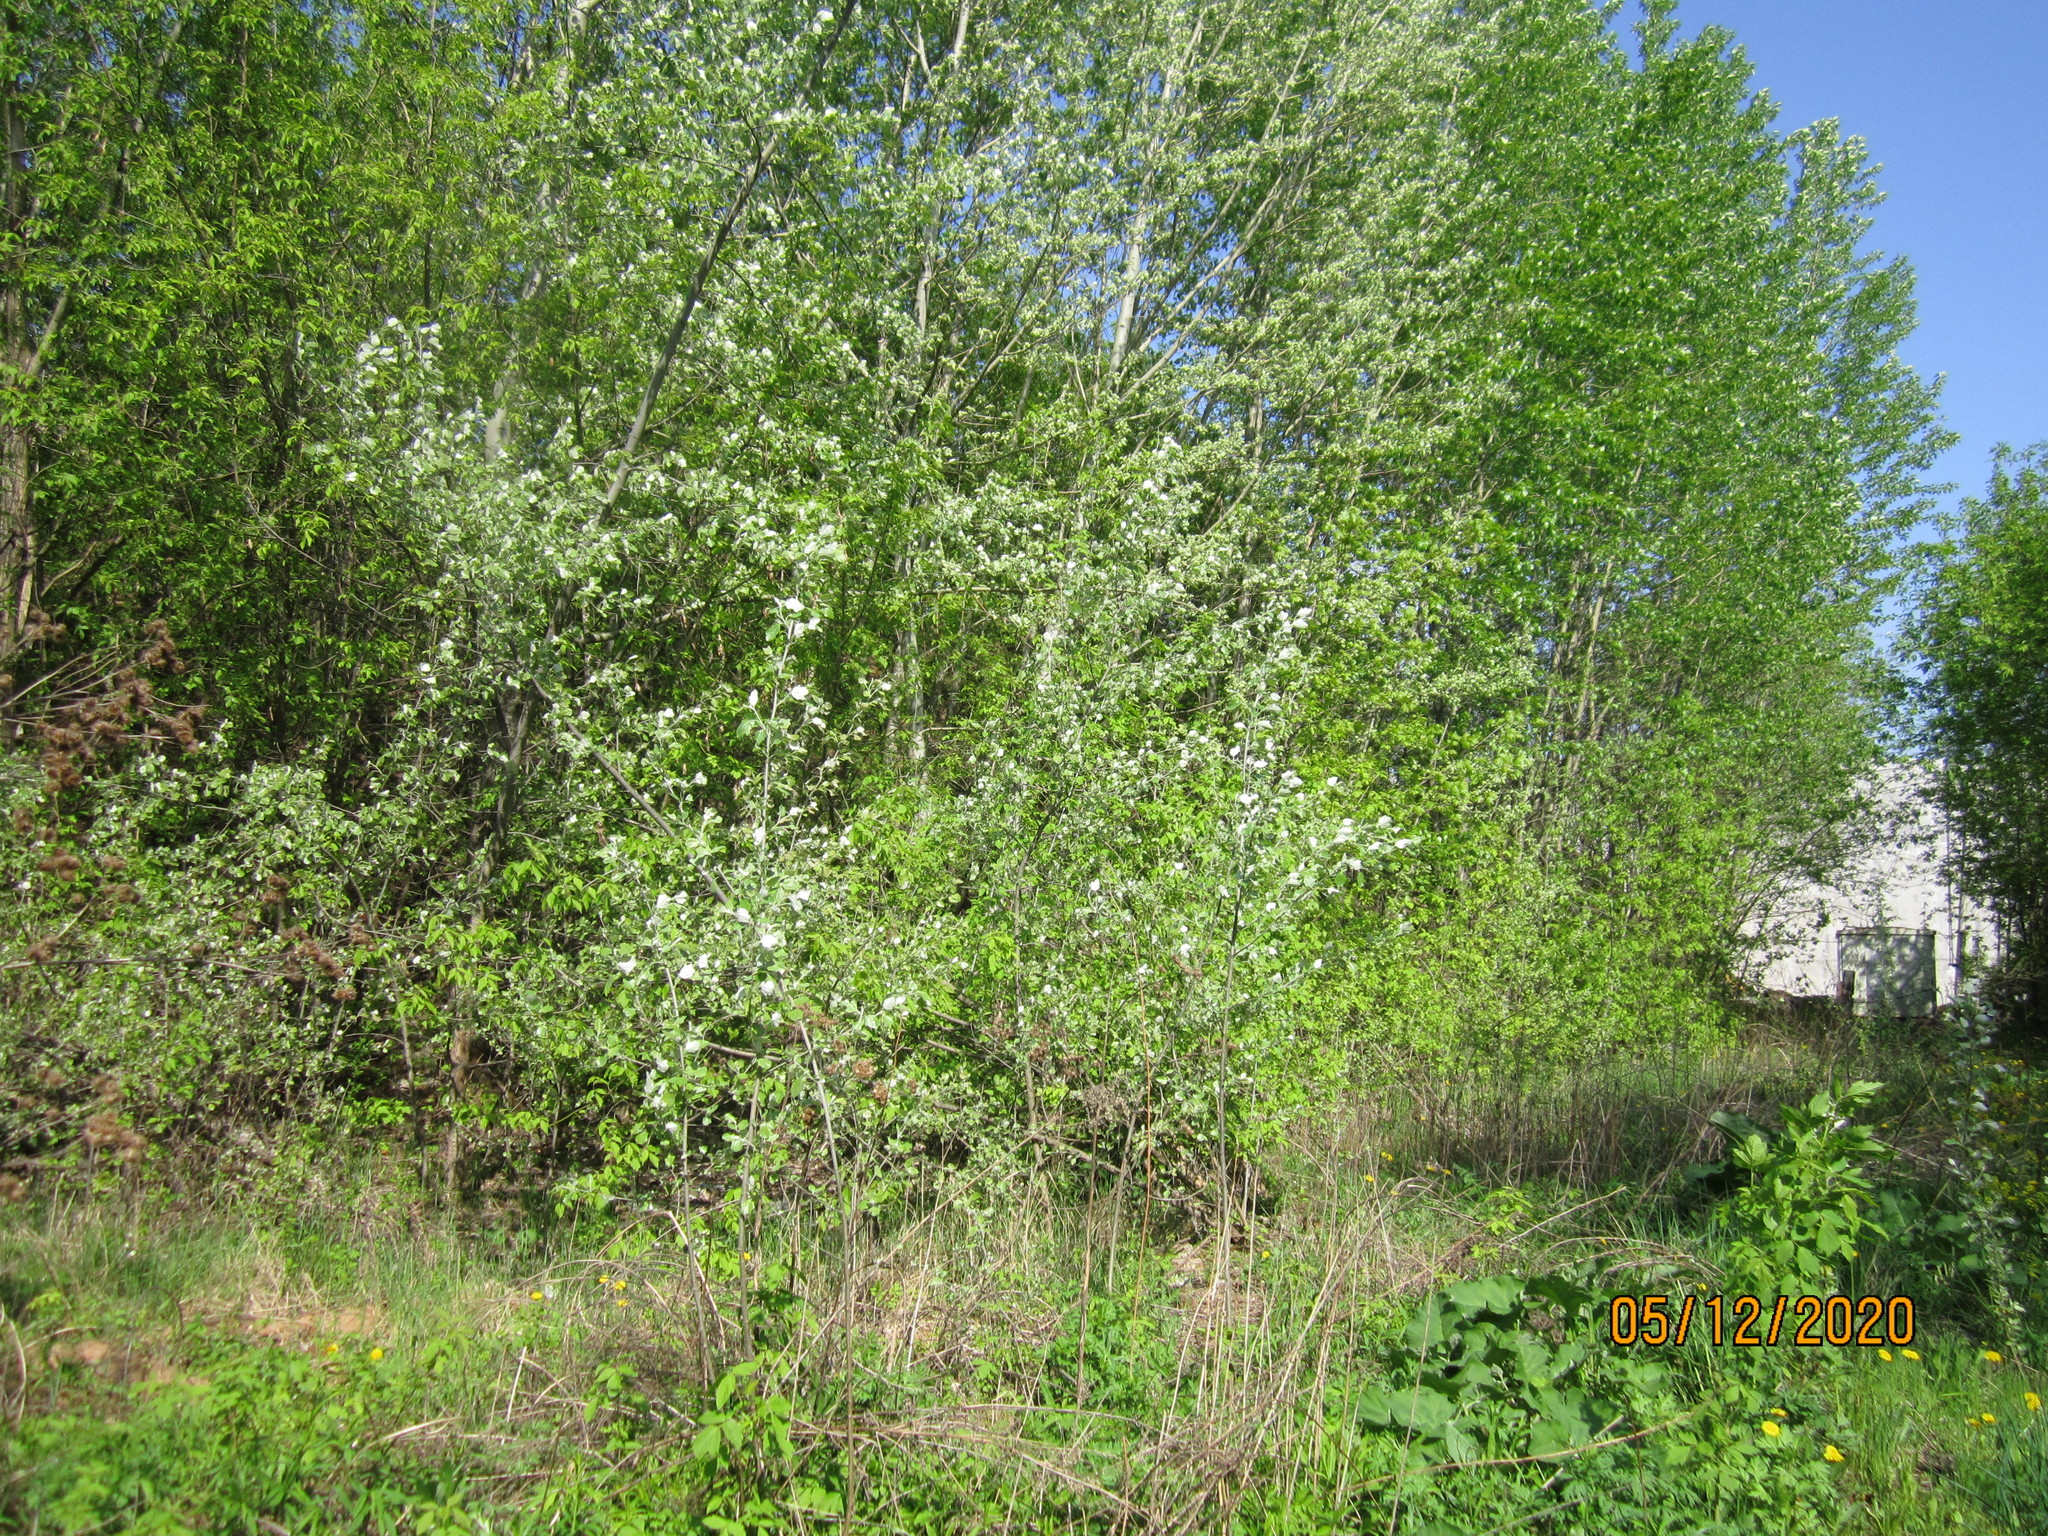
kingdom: Plantae
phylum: Tracheophyta
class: Magnoliopsida
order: Malpighiales
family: Salicaceae
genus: Populus
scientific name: Populus alba
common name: White poplar
